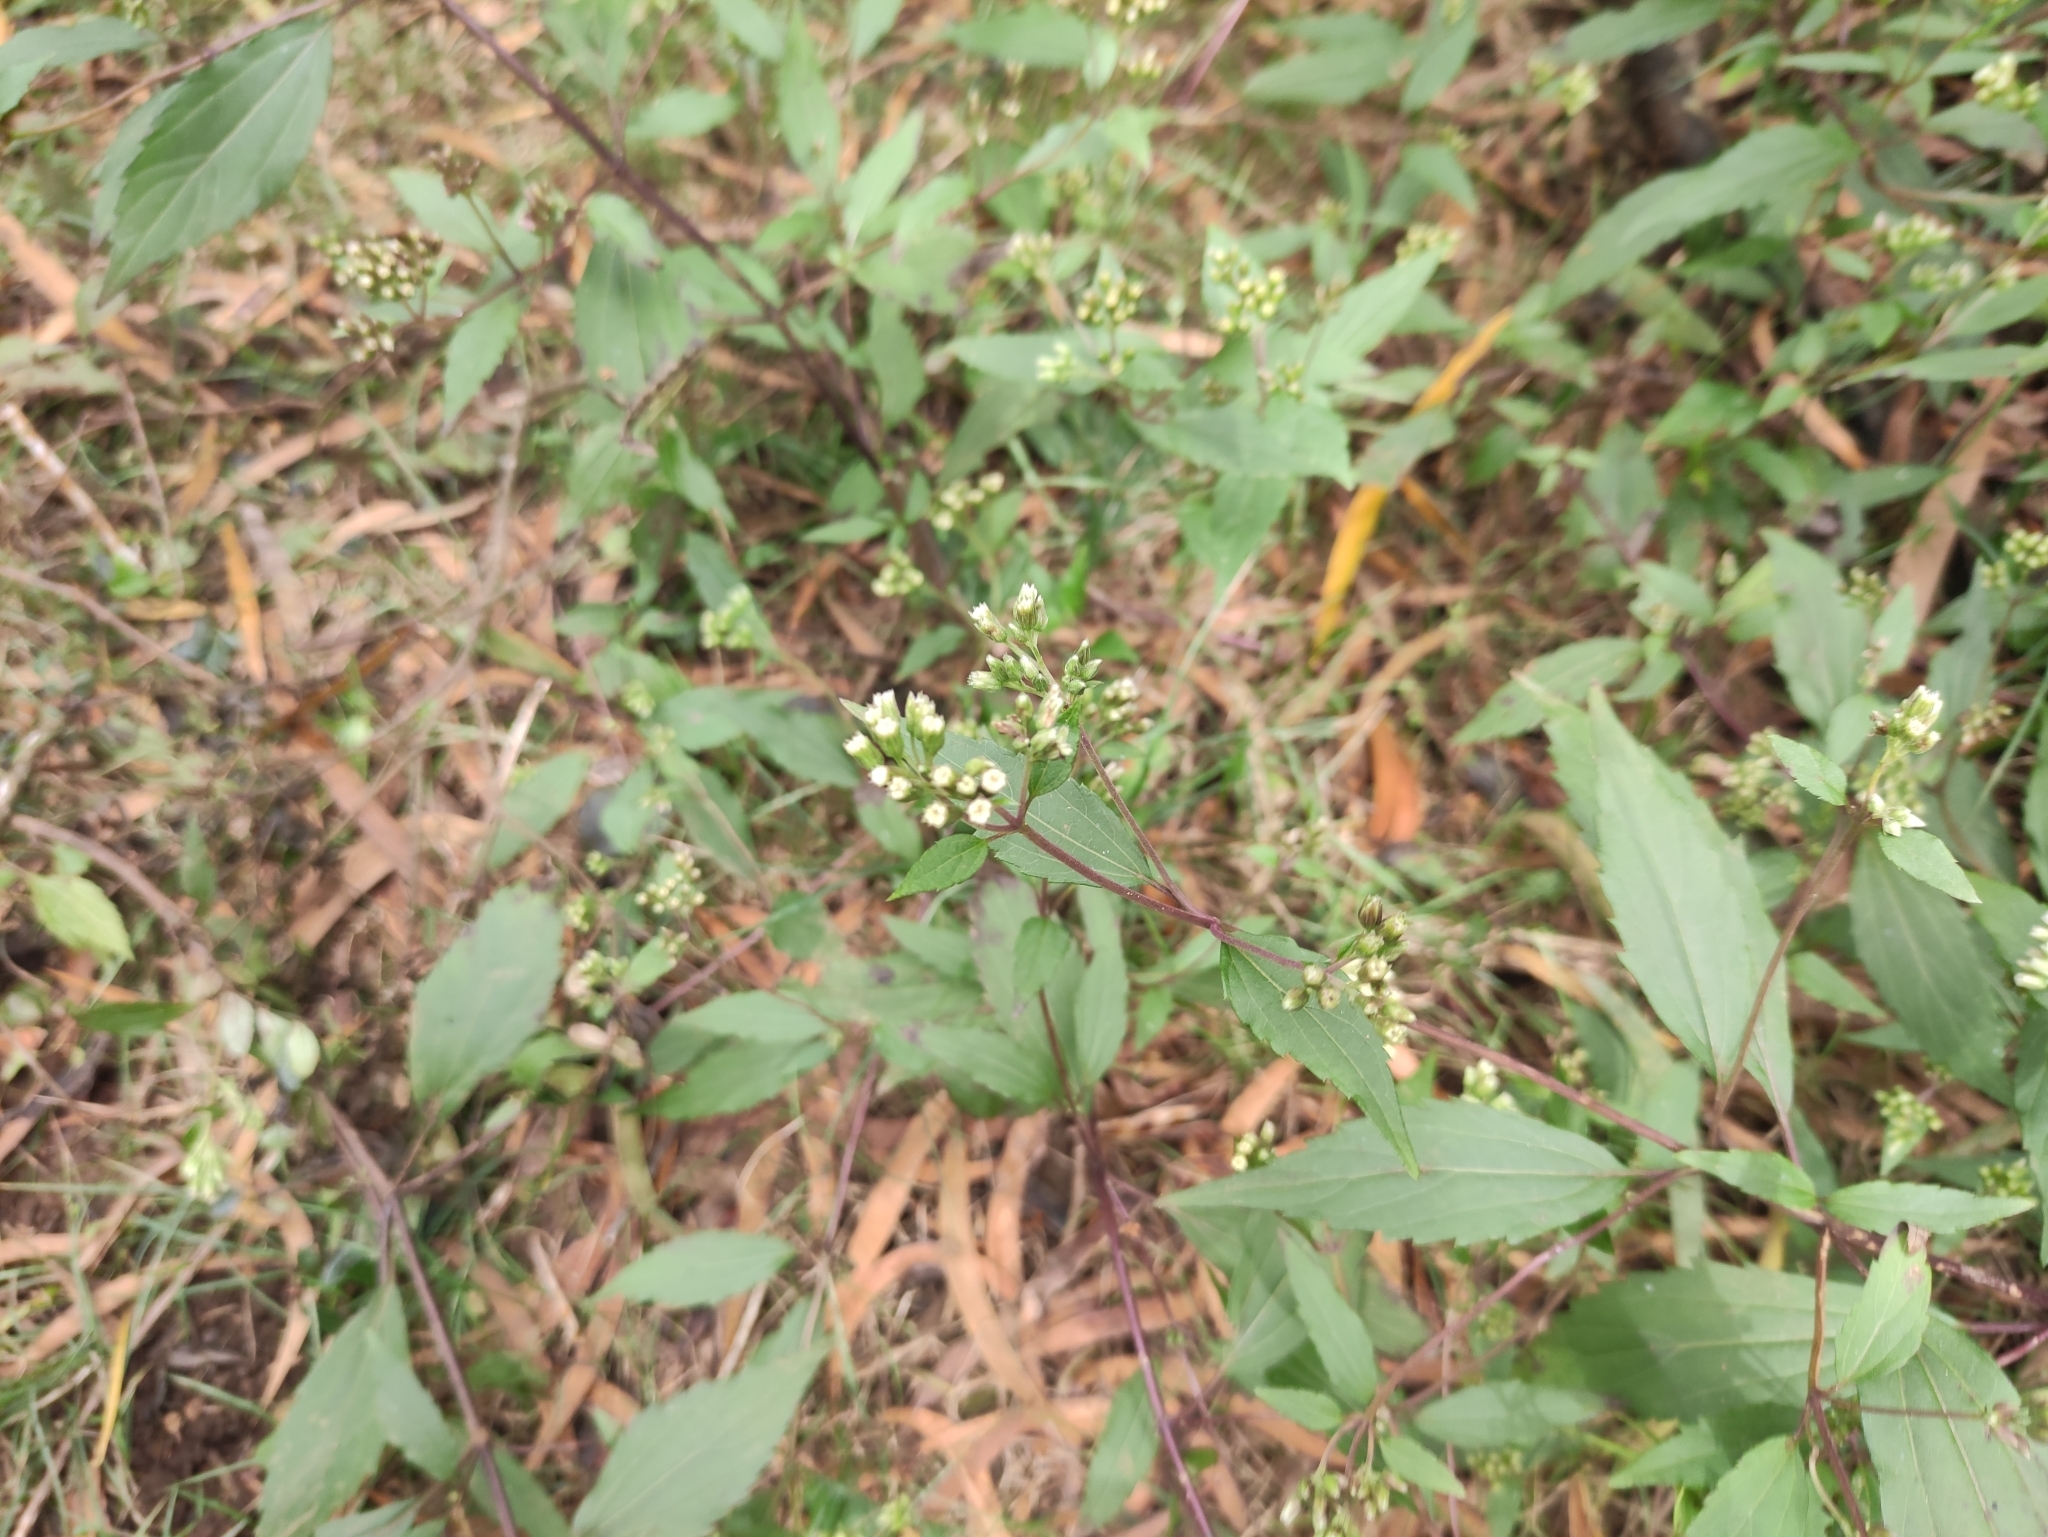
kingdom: Plantae
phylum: Tracheophyta
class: Magnoliopsida
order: Asterales
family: Asteraceae
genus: Ageratina
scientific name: Ageratina riparia
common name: Creeping croftonweed
